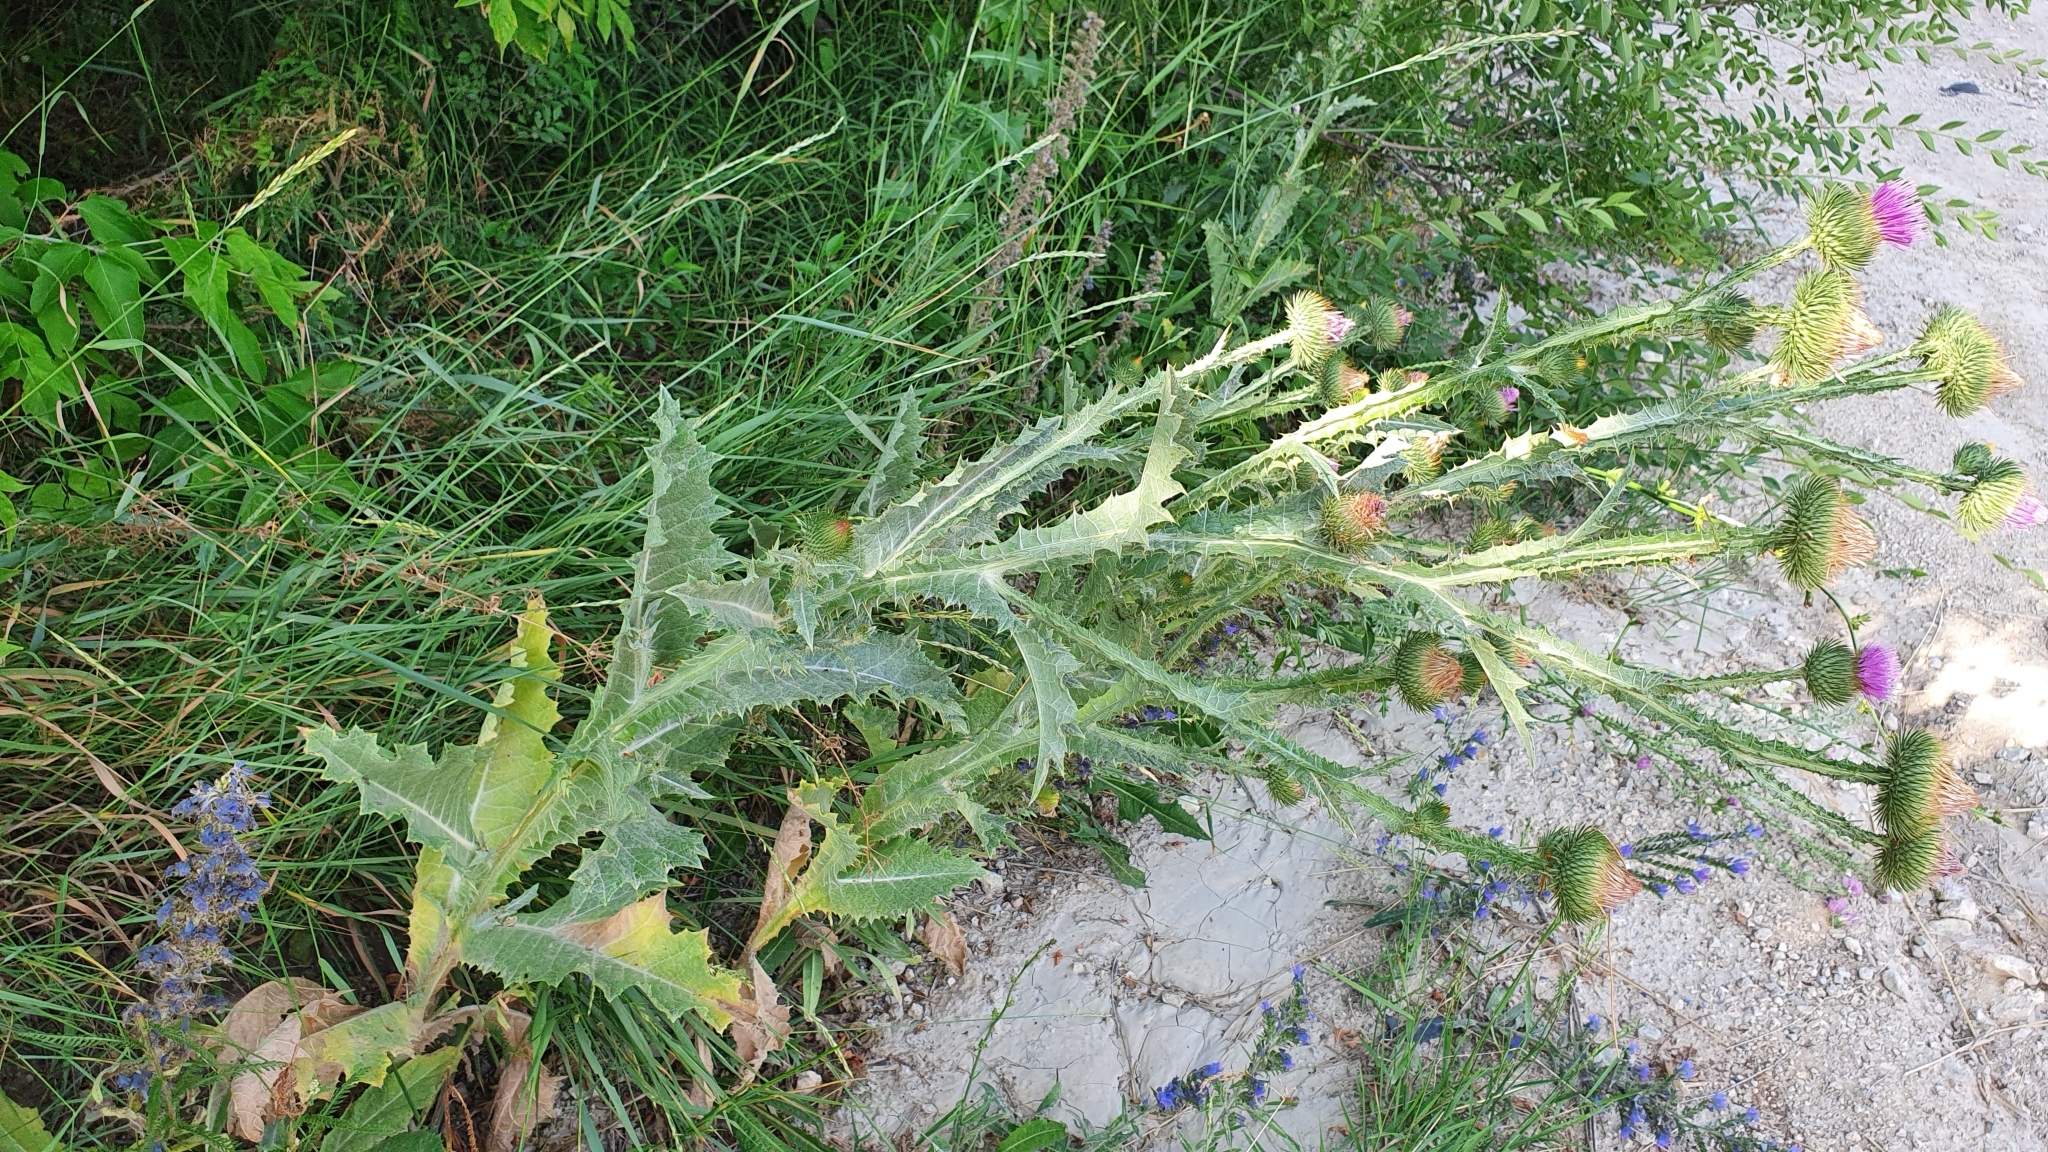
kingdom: Plantae
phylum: Tracheophyta
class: Magnoliopsida
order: Asterales
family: Asteraceae
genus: Onopordum
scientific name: Onopordum acanthium
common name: Scotch thistle
